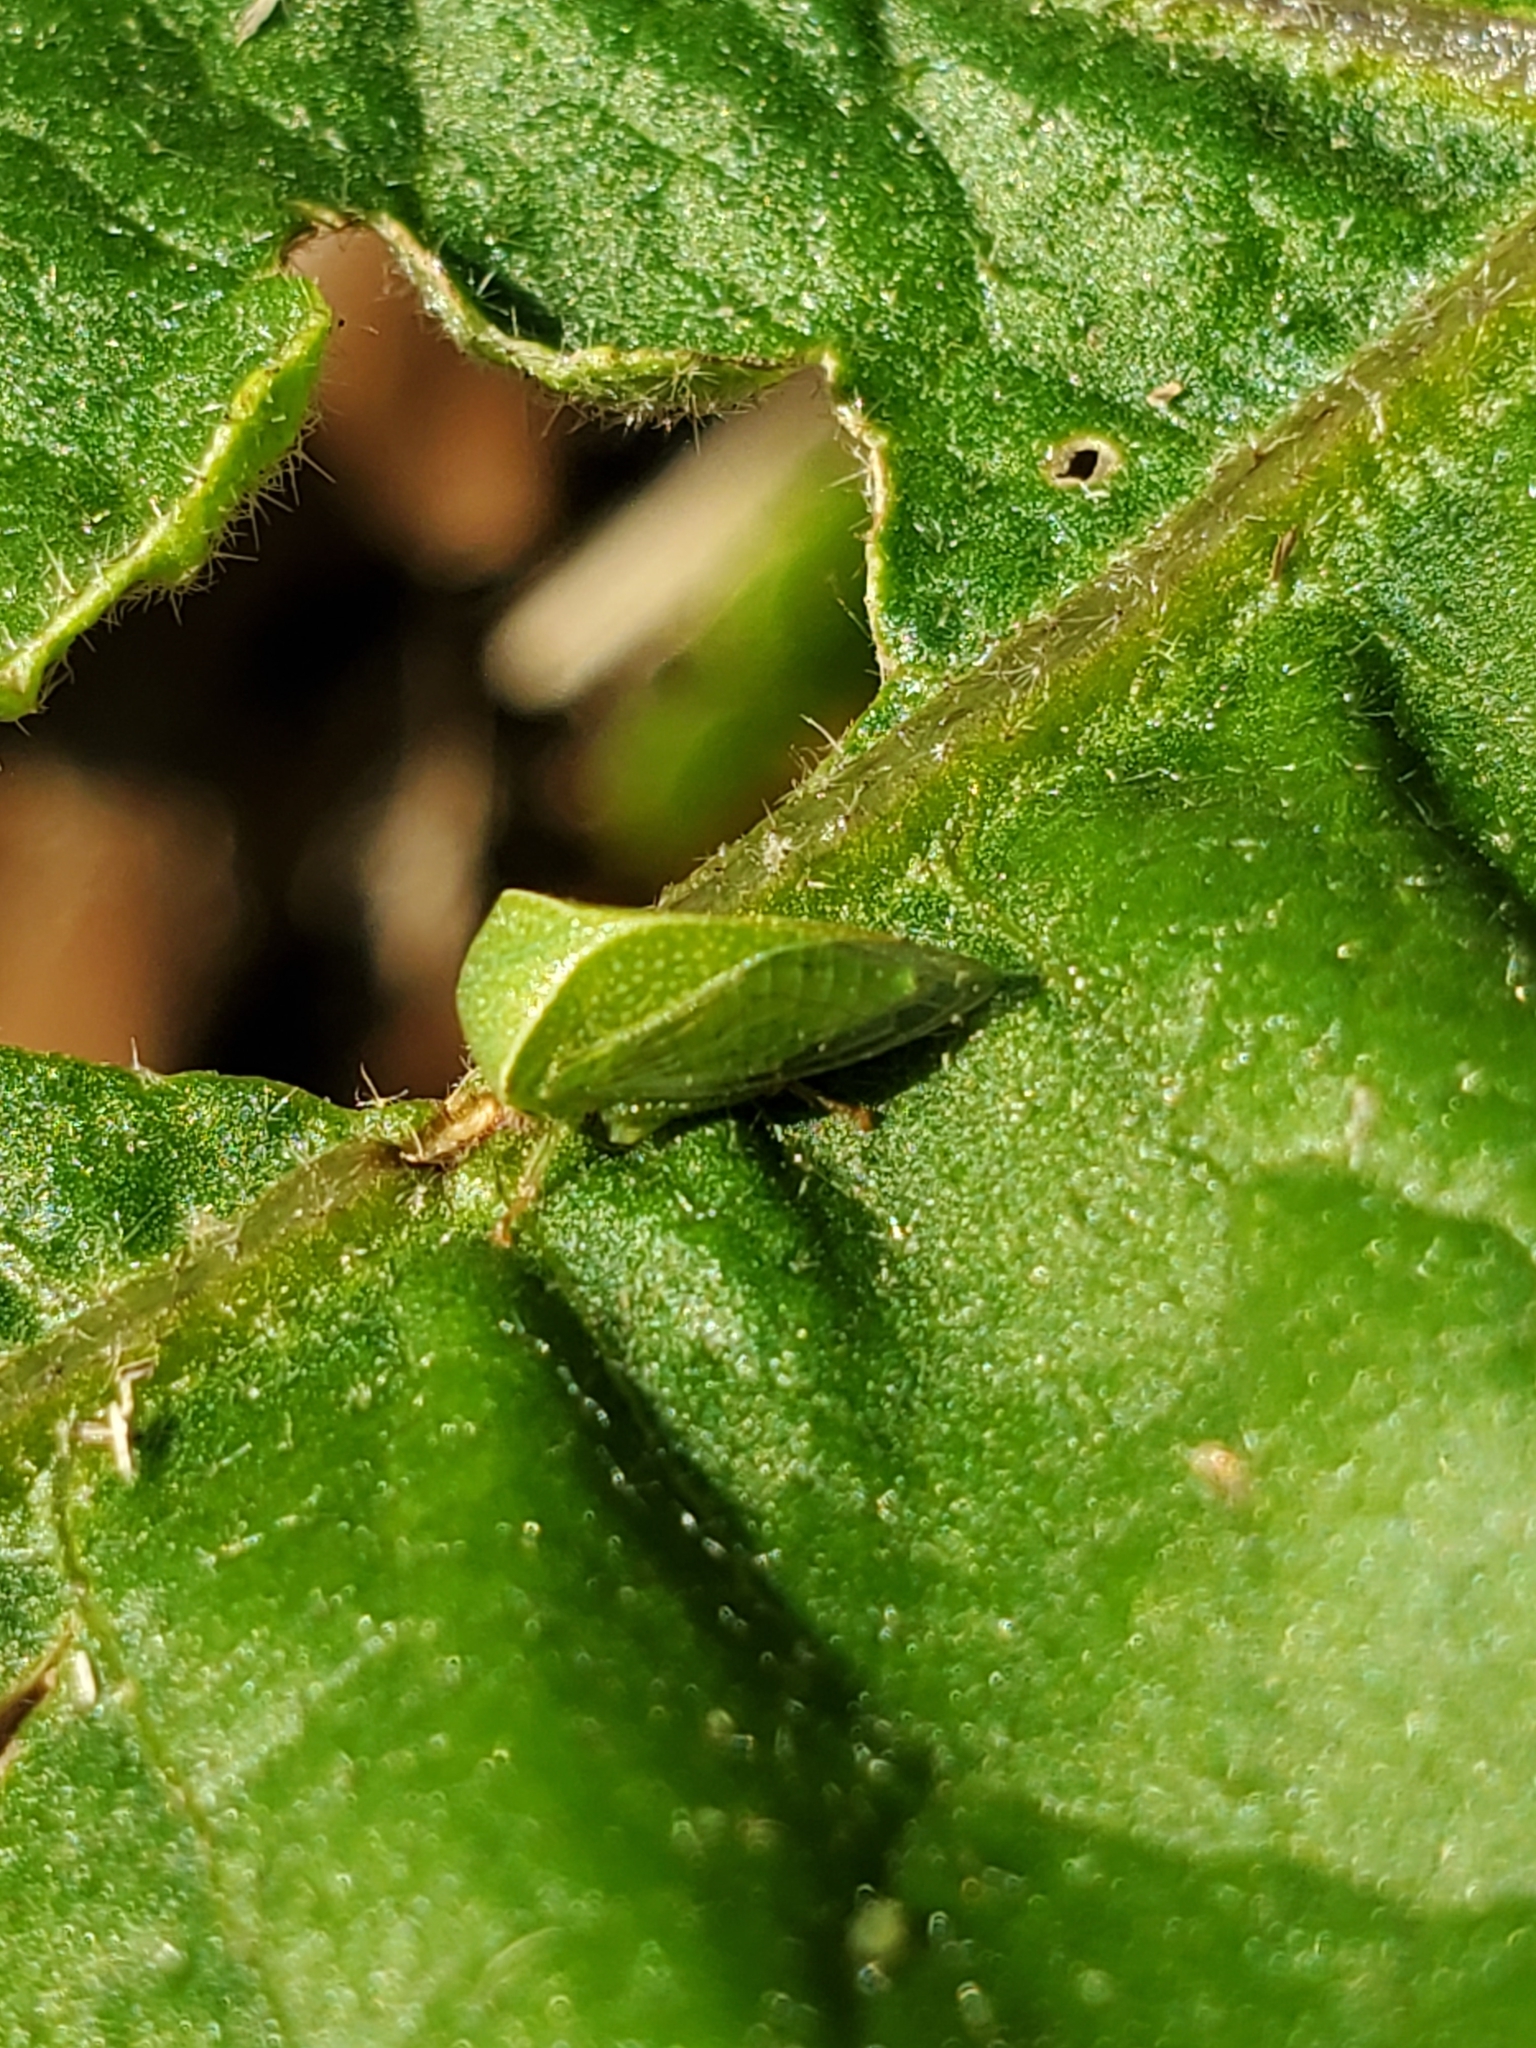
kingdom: Animalia
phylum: Arthropoda
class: Insecta
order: Hemiptera
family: Membracidae
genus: Spissistilus
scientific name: Spissistilus festina
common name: Membracid bug
